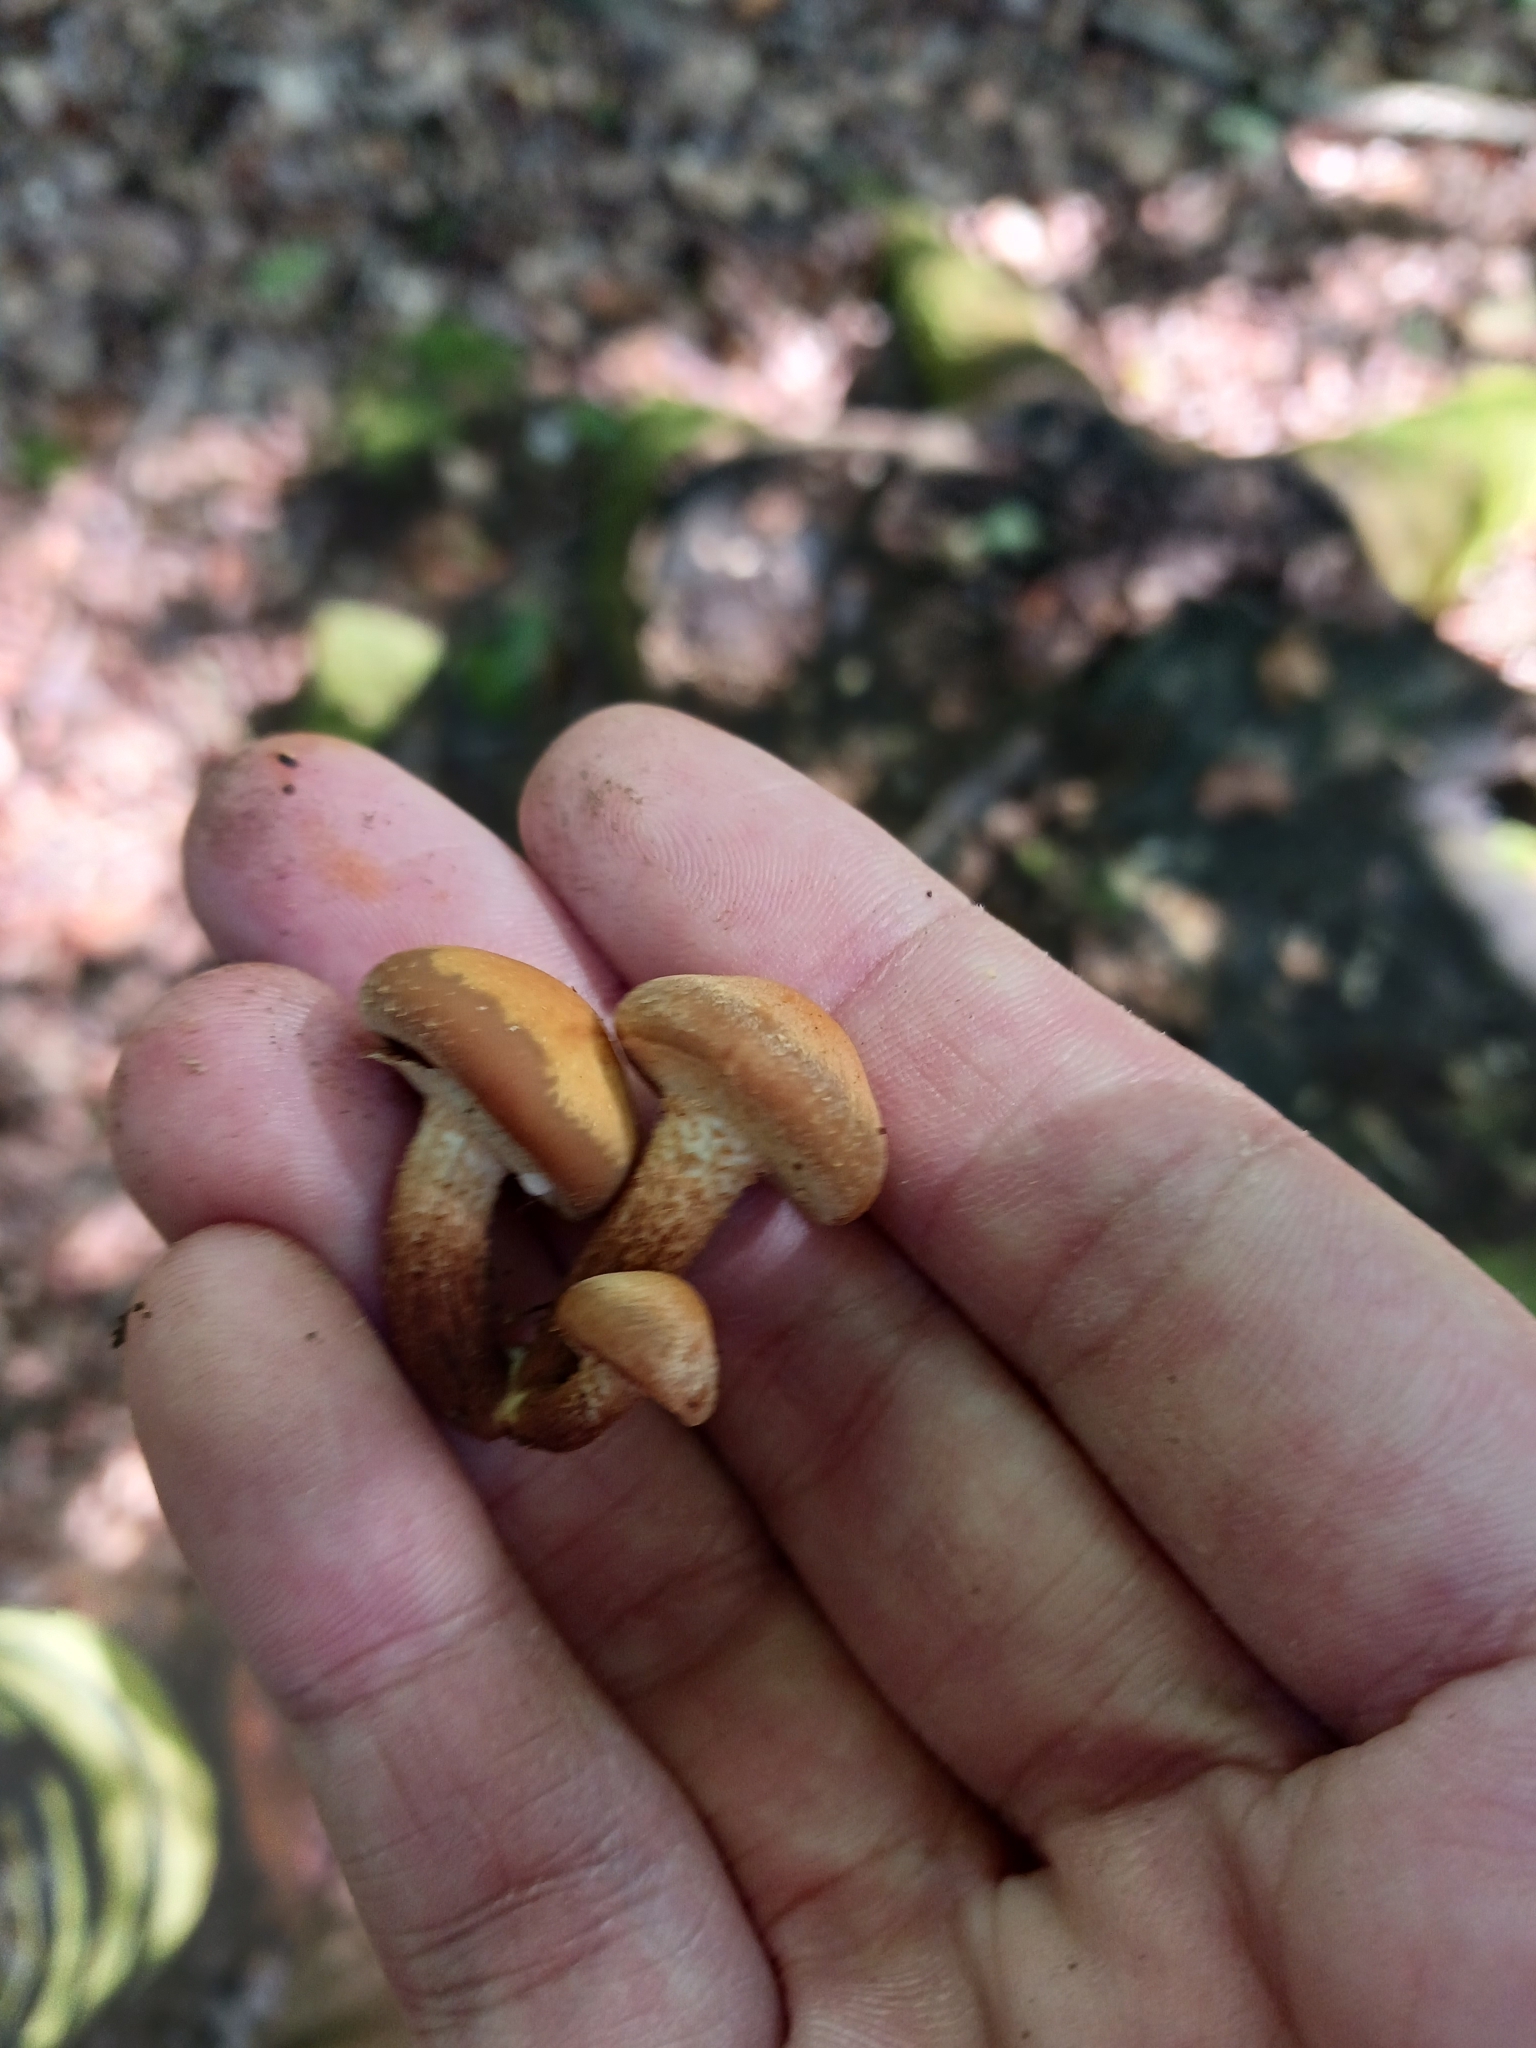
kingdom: Fungi
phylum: Basidiomycota
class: Agaricomycetes
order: Agaricales
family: Strophariaceae
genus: Kuehneromyces
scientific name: Kuehneromyces mutabilis
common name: Sheathed woodtuft
